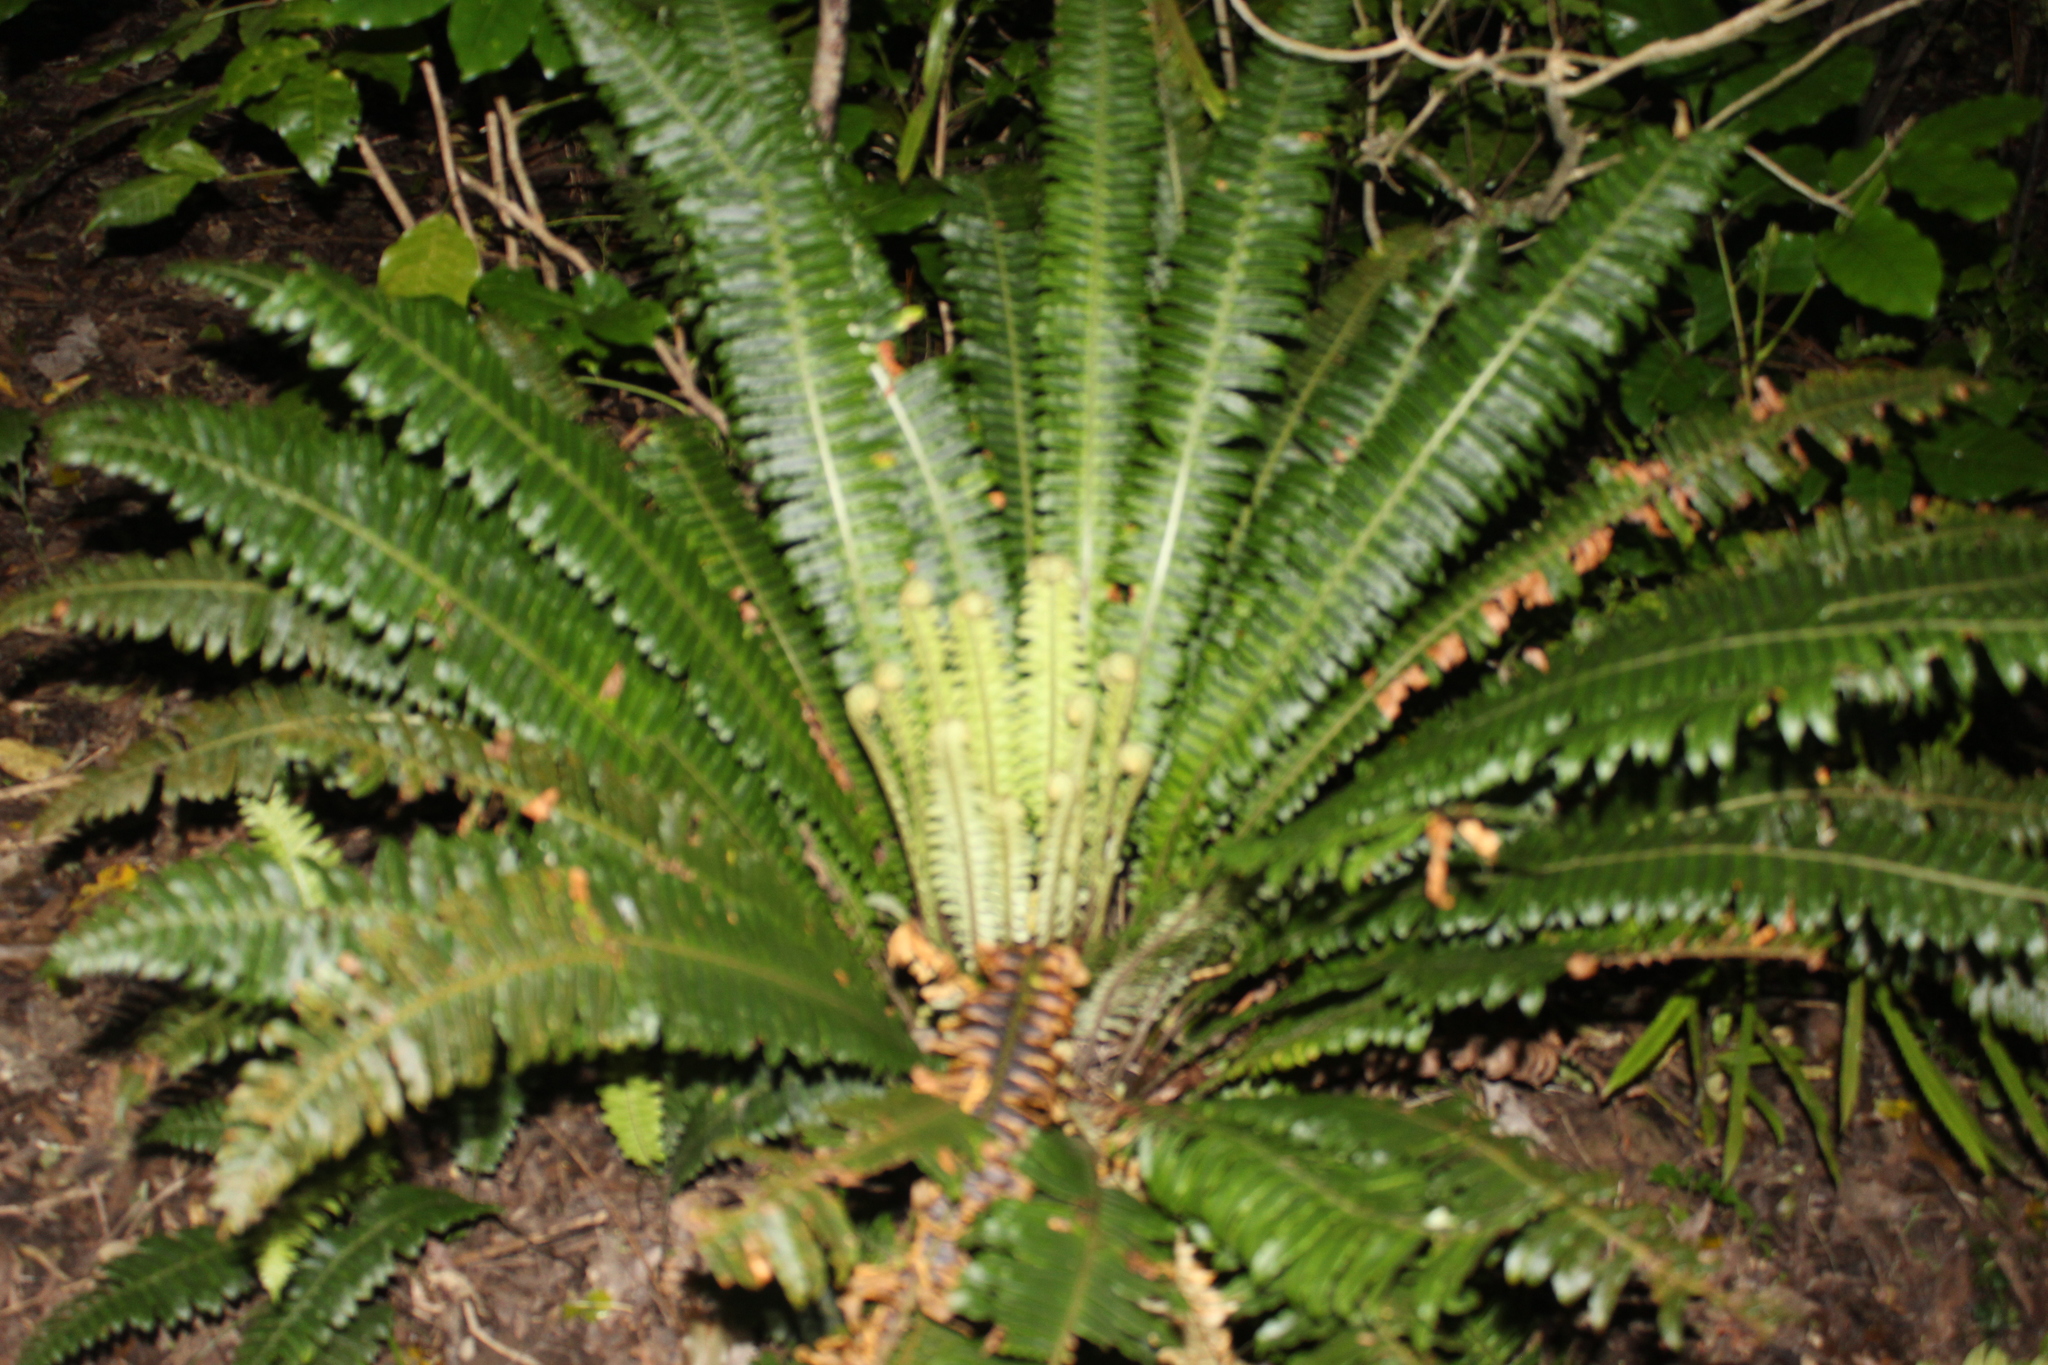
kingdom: Plantae
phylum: Tracheophyta
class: Polypodiopsida
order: Polypodiales
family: Blechnaceae
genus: Lomaria
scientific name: Lomaria discolor
